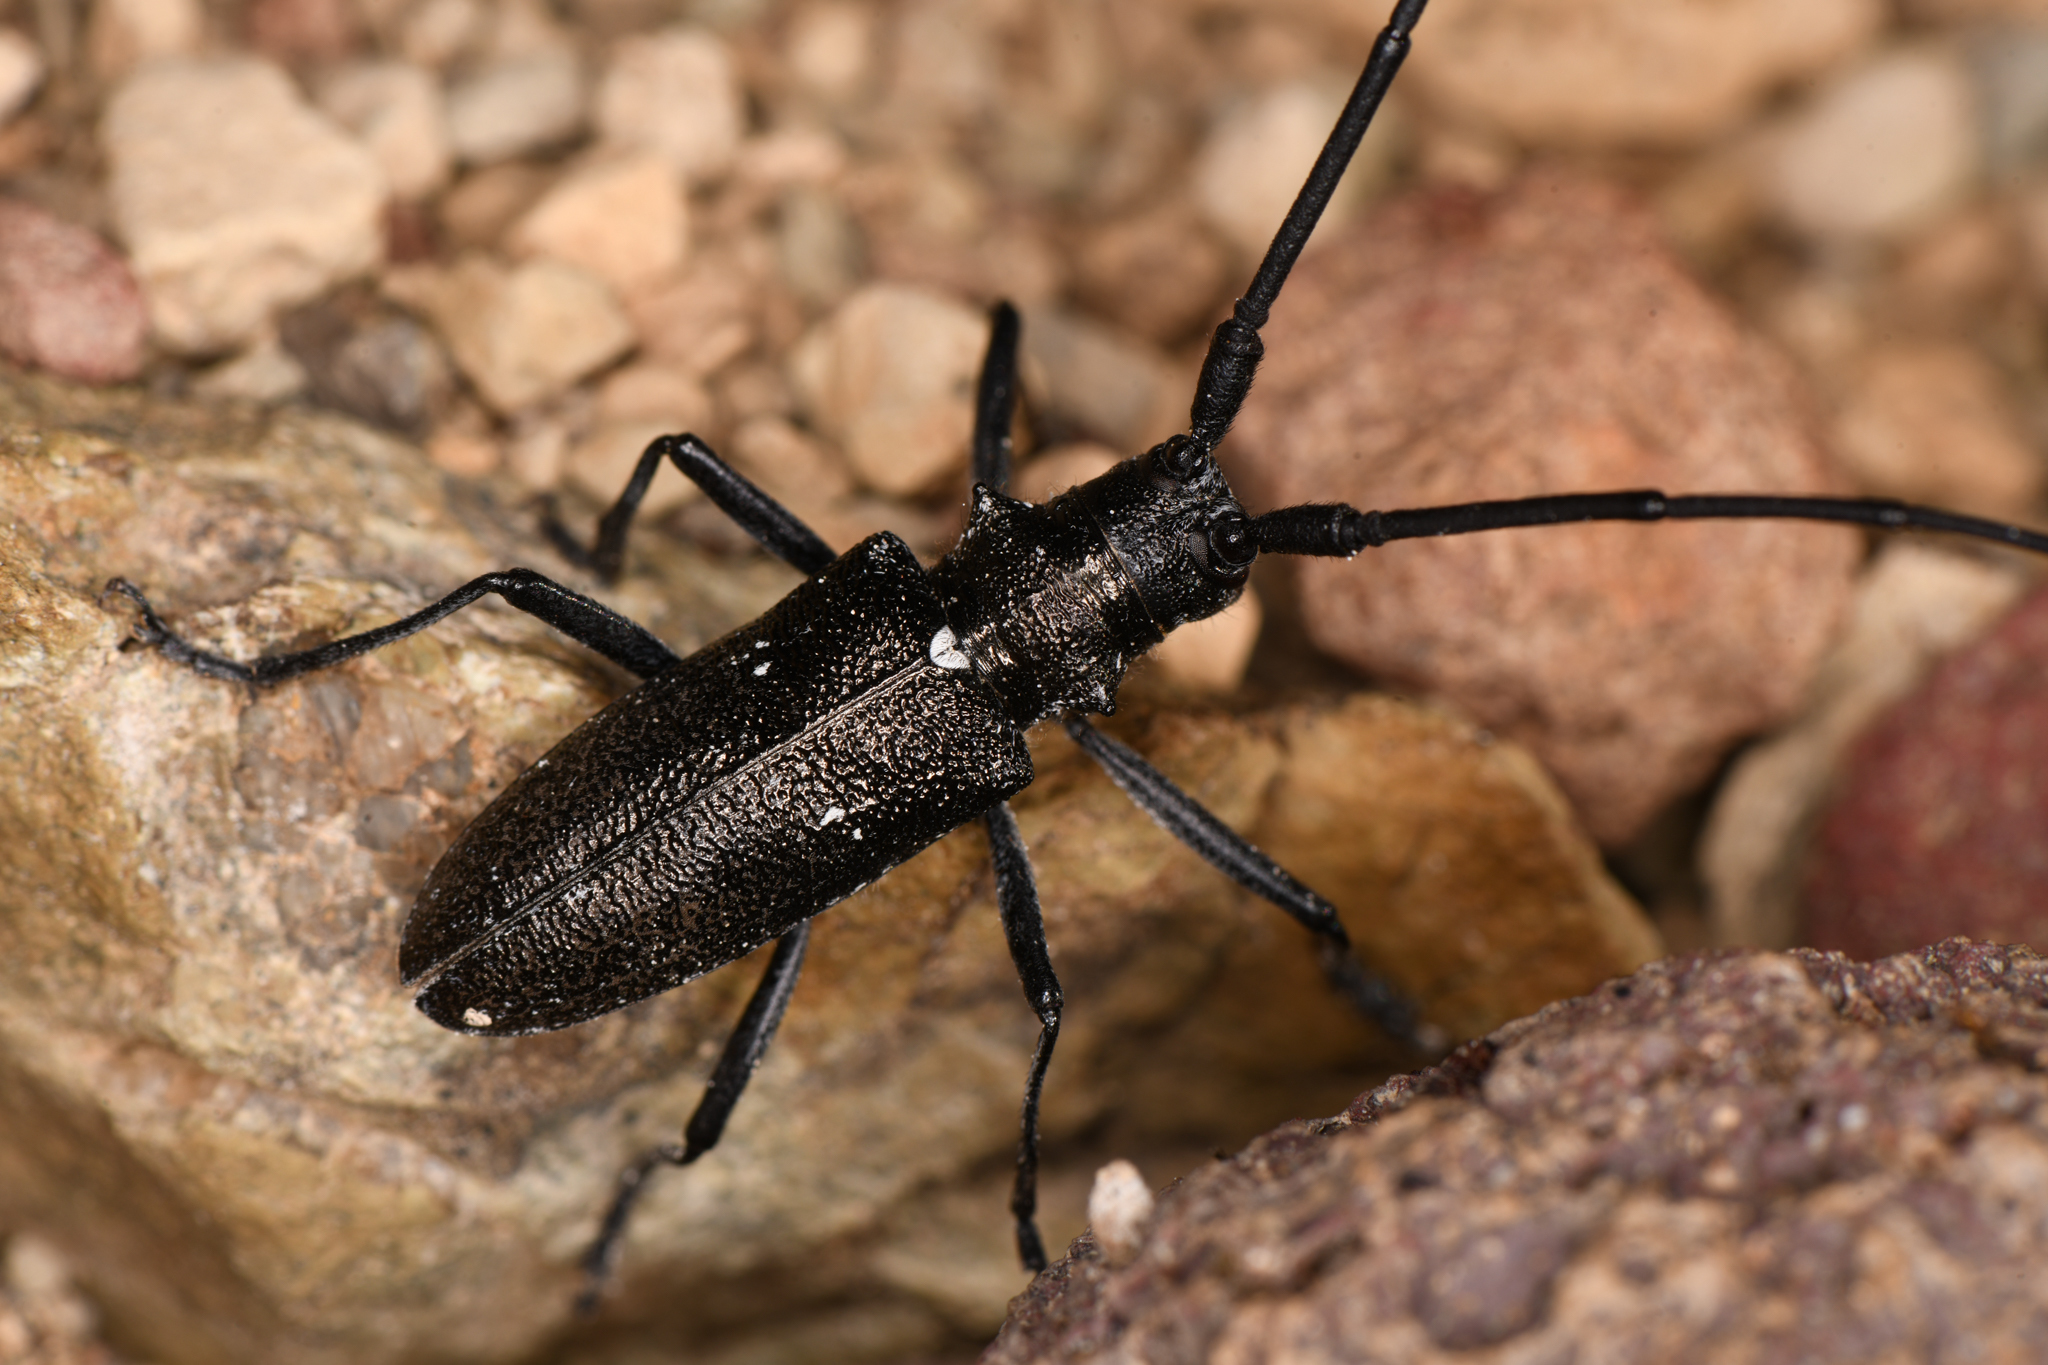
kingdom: Animalia
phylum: Arthropoda
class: Insecta
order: Coleoptera
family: Cerambycidae
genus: Monochamus
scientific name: Monochamus scutellatus
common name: White-spotted sawyer beetle
